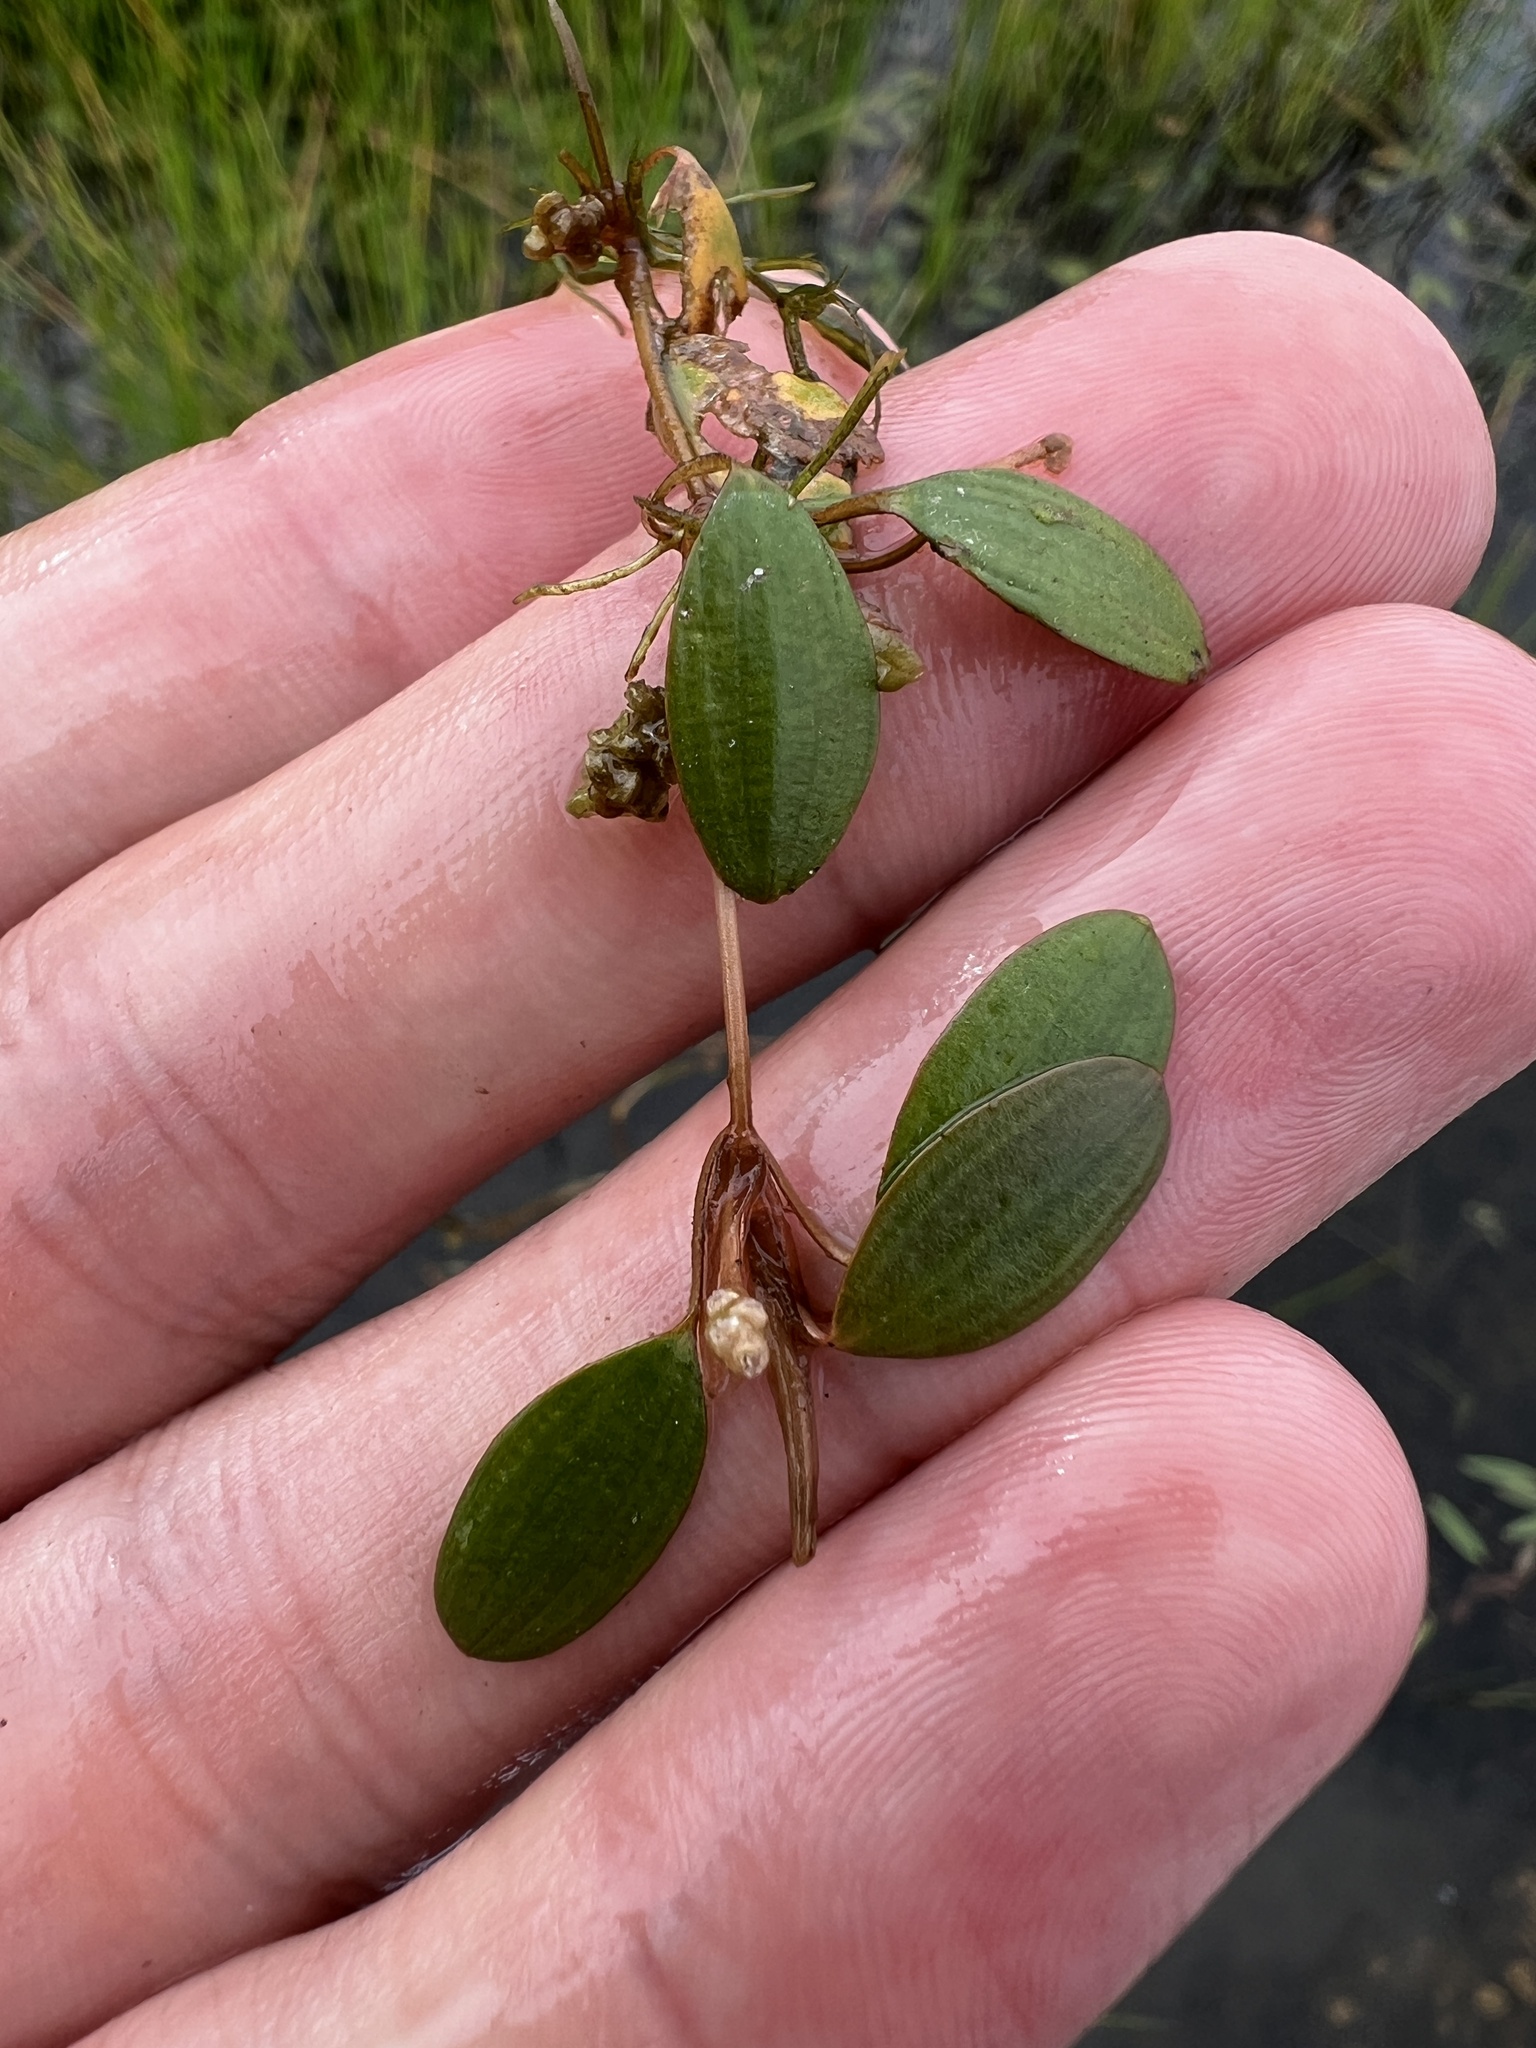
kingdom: Plantae
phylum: Tracheophyta
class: Liliopsida
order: Alismatales
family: Potamogetonaceae
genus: Potamogeton
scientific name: Potamogeton diversifolius
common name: Water-thread pondweed
